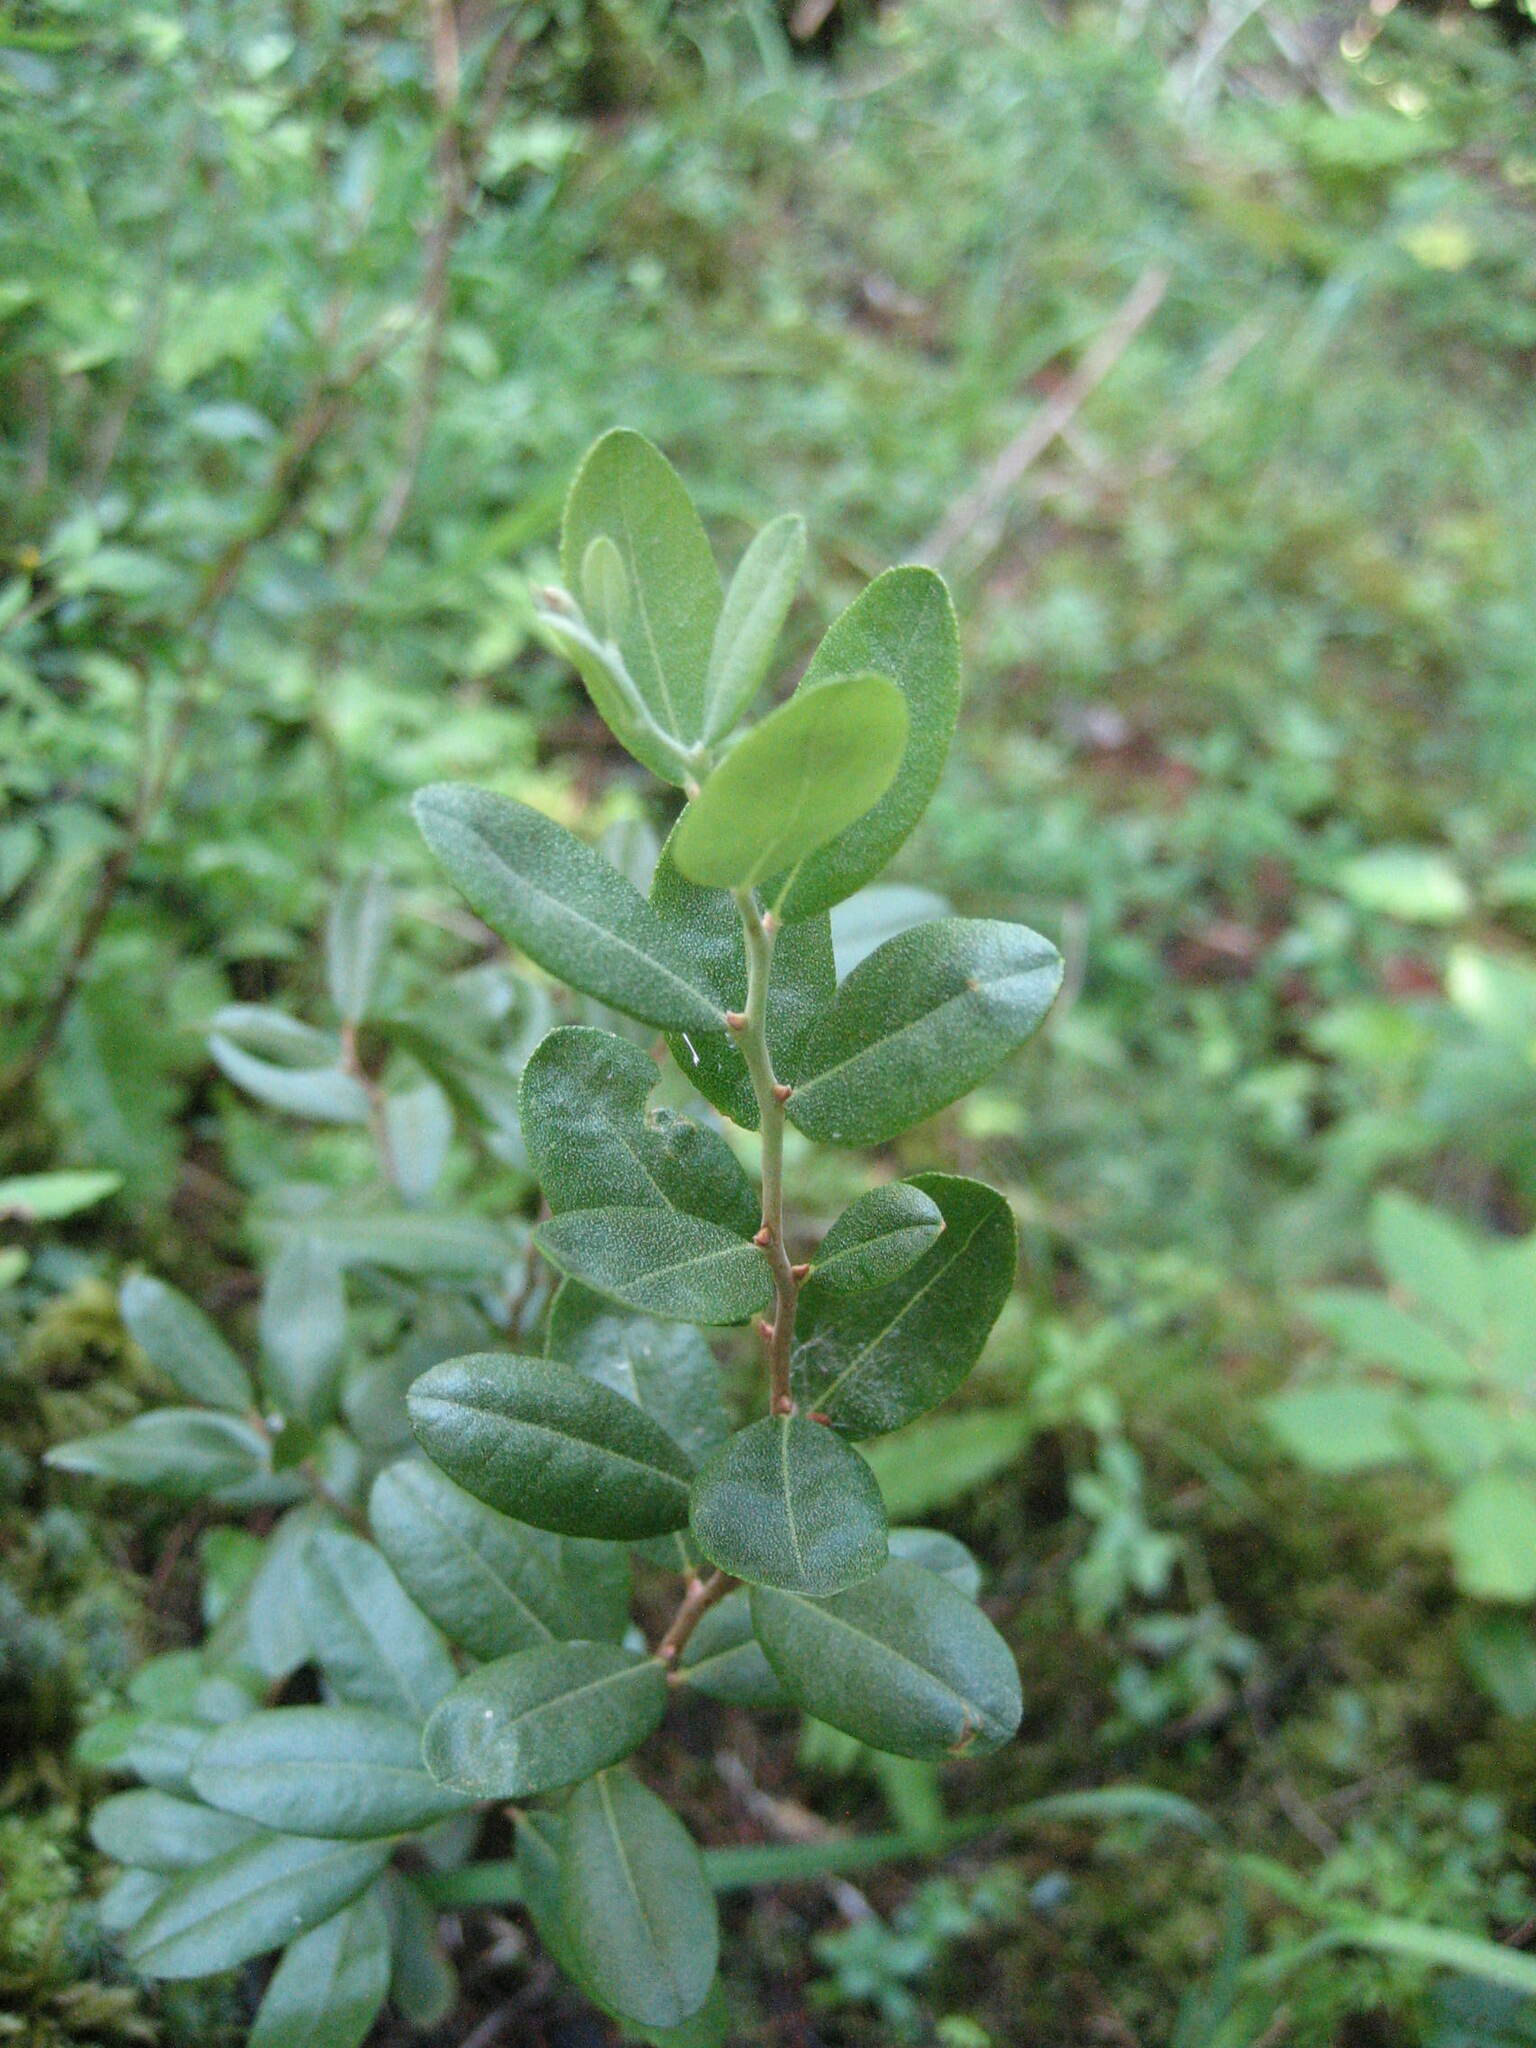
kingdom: Plantae
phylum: Tracheophyta
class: Magnoliopsida
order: Ericales
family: Ericaceae
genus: Chamaedaphne
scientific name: Chamaedaphne calyculata
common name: Leatherleaf
